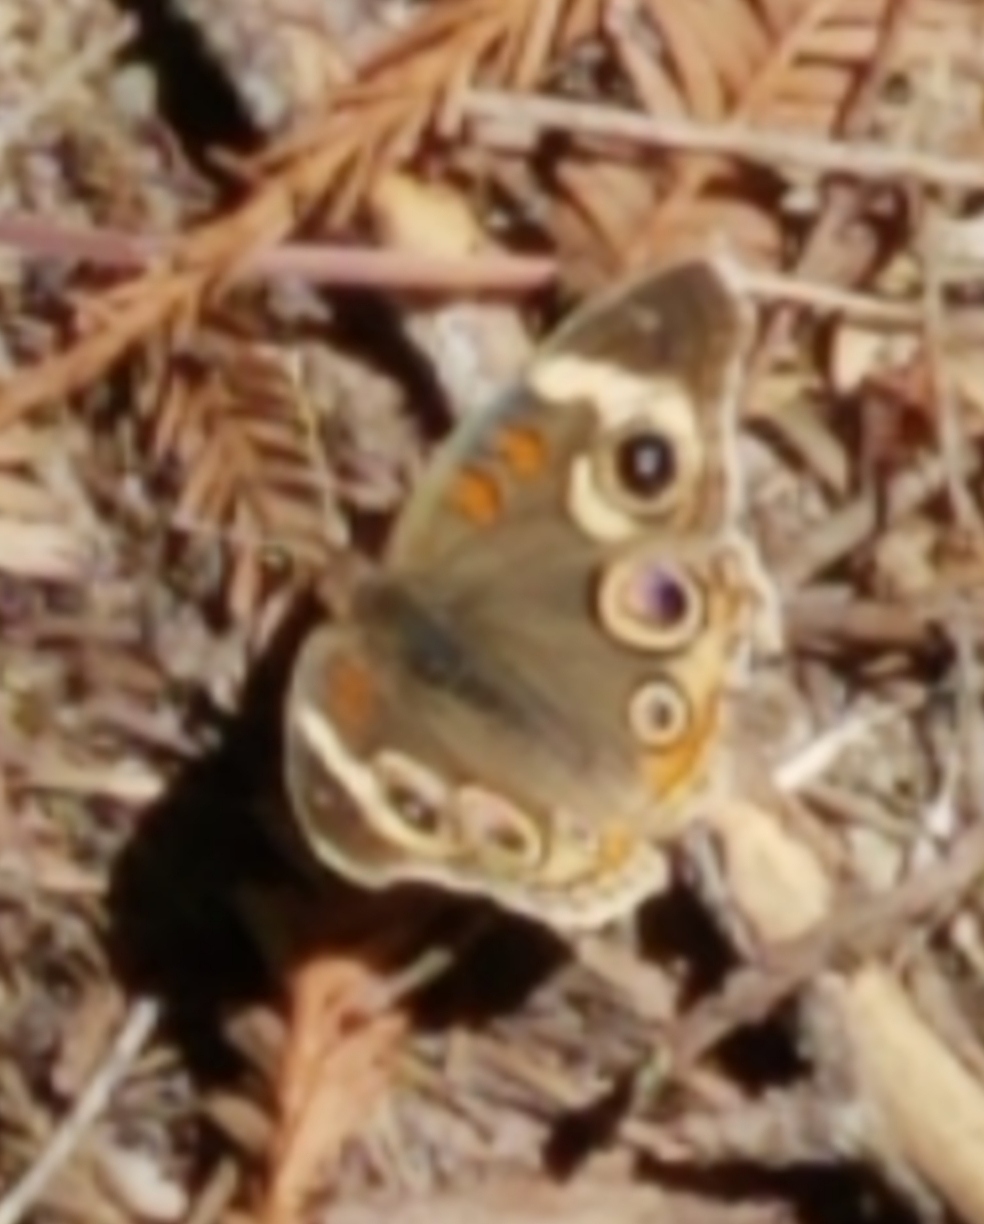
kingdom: Animalia
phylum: Arthropoda
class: Insecta
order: Lepidoptera
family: Nymphalidae
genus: Junonia
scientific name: Junonia grisea
